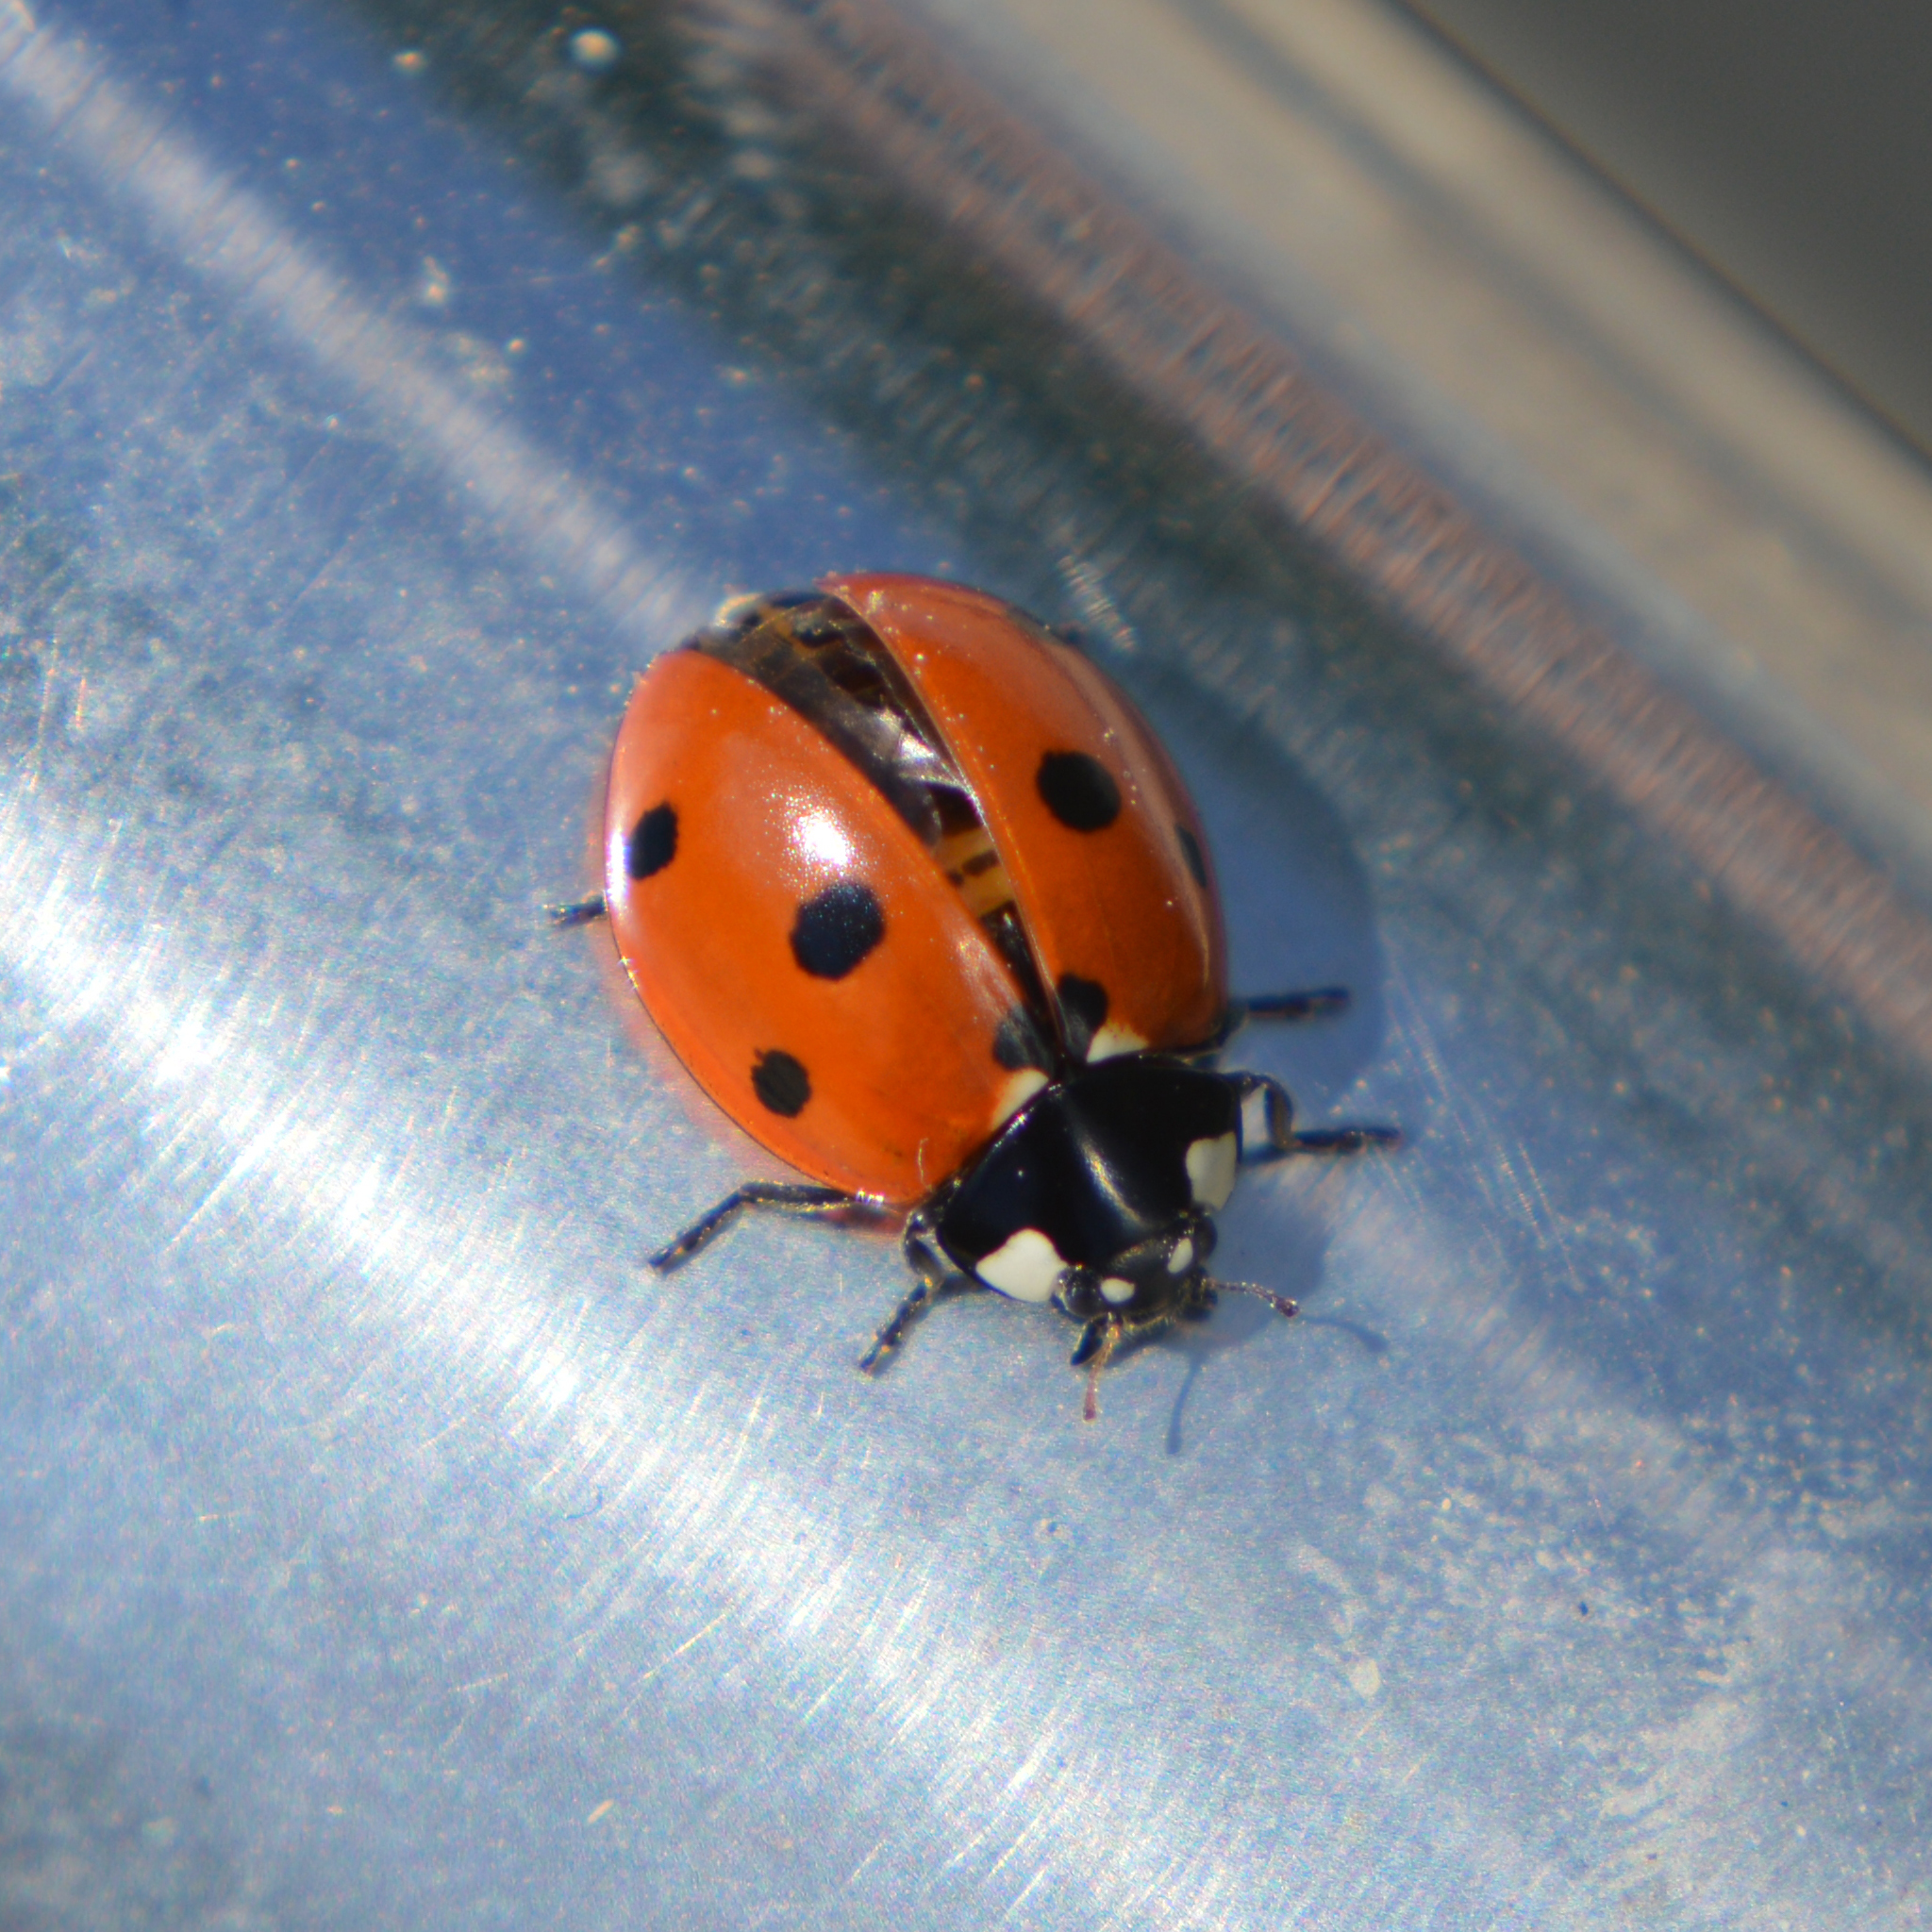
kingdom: Animalia
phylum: Arthropoda
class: Insecta
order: Coleoptera
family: Coccinellidae
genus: Coccinella
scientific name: Coccinella septempunctata
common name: Sevenspotted lady beetle
